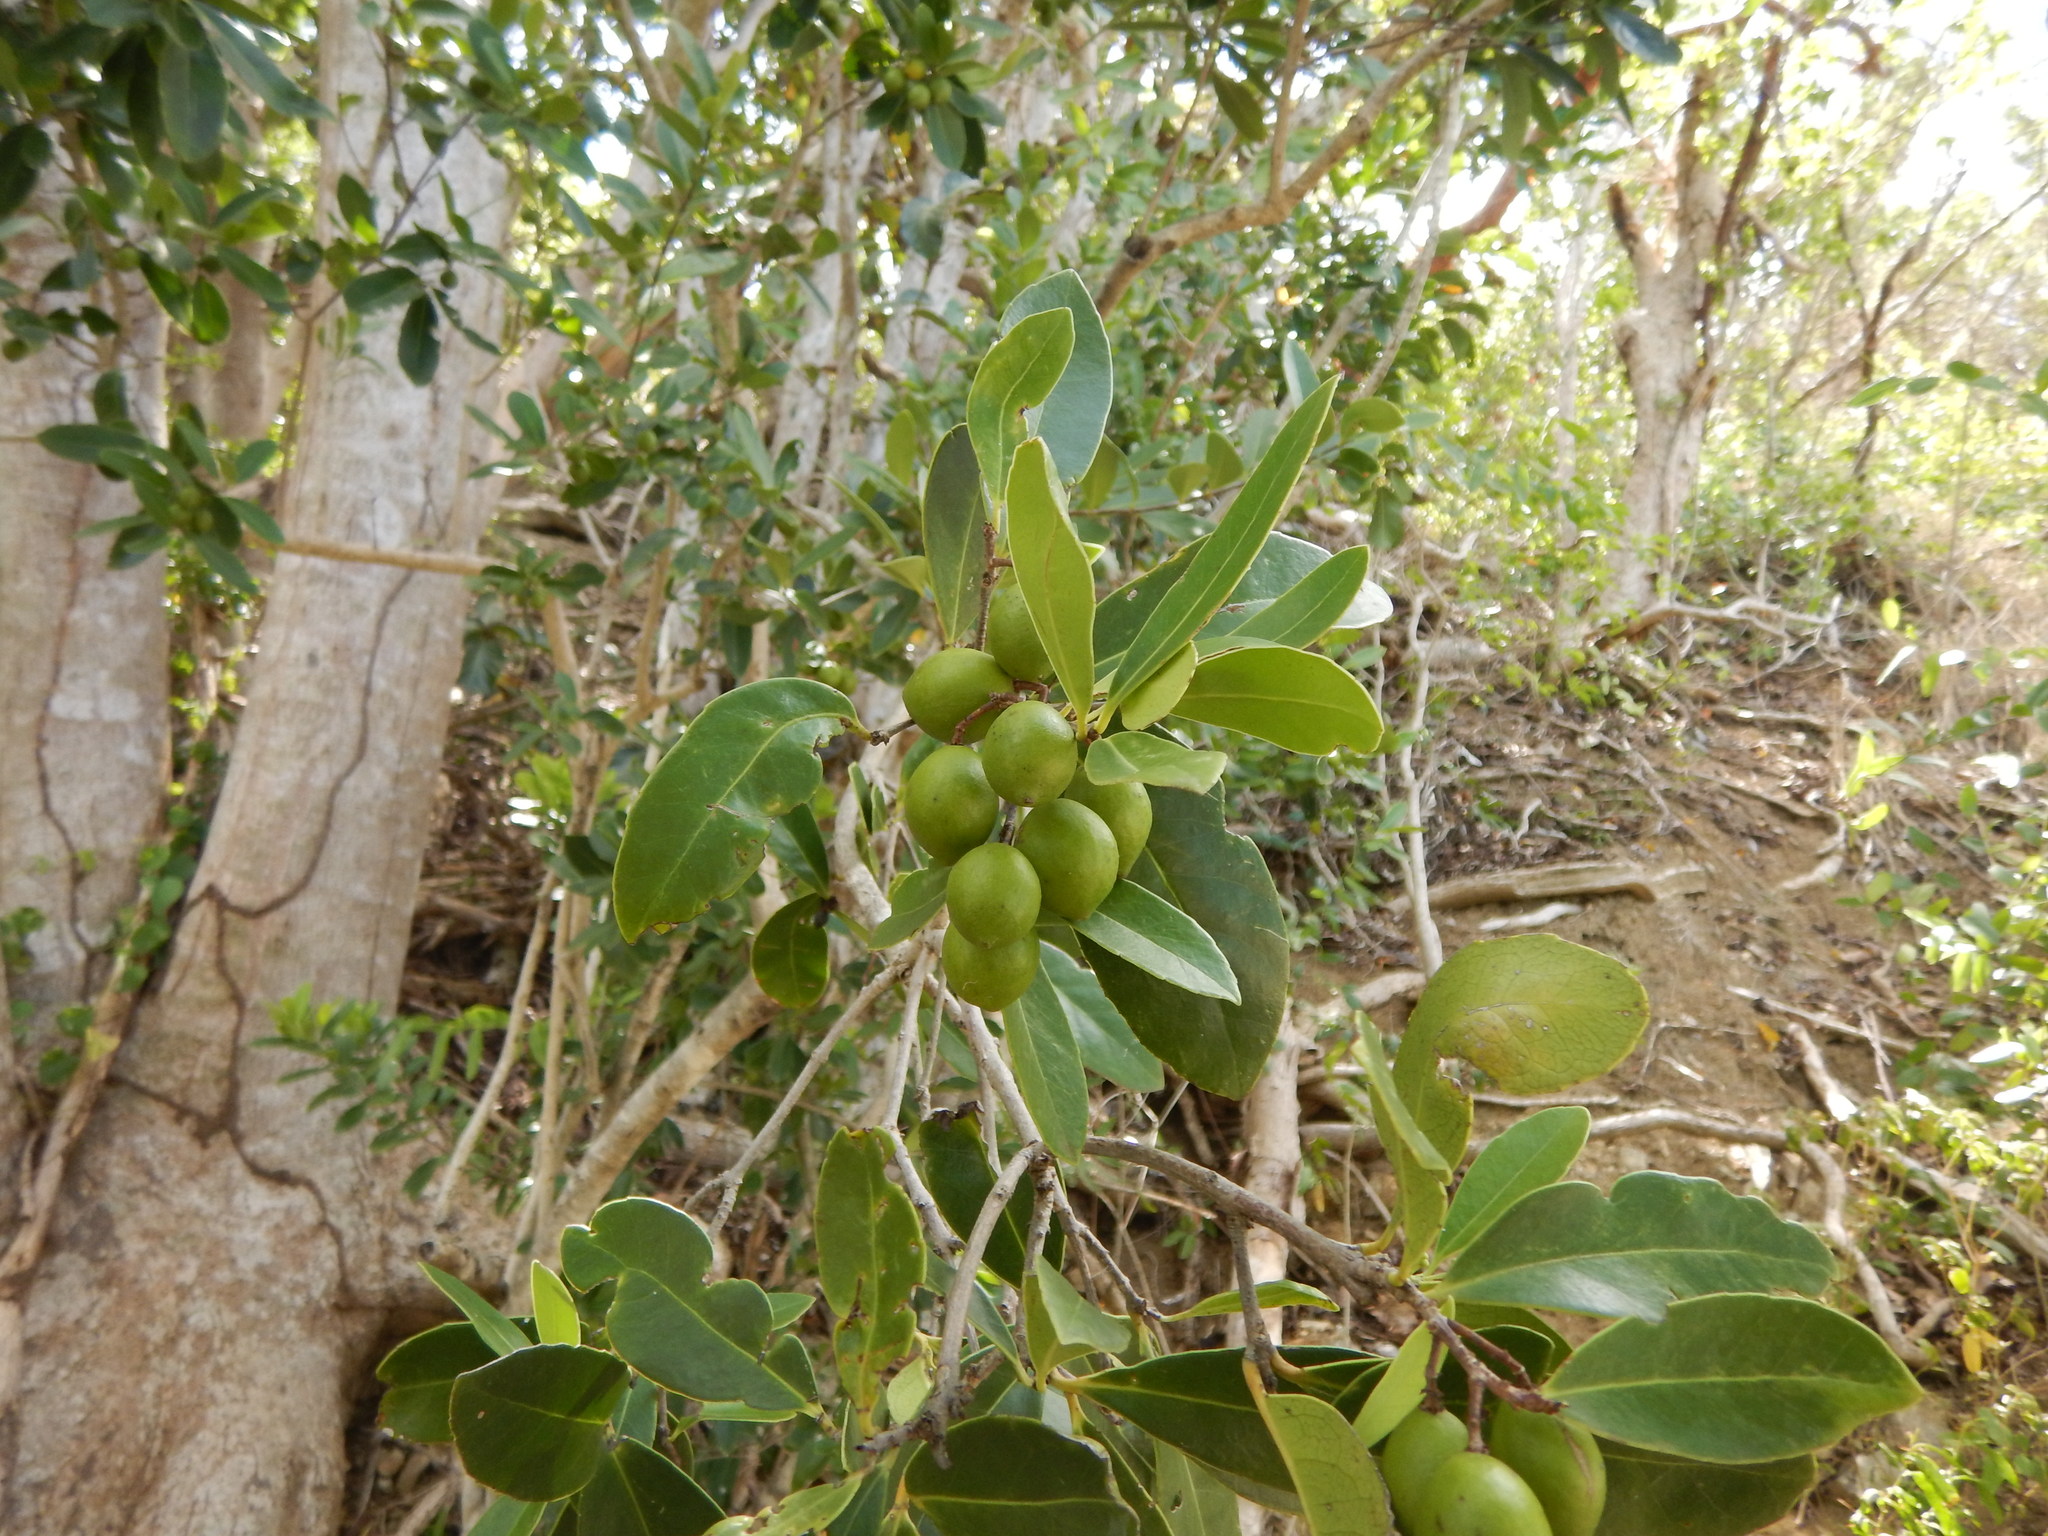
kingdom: Plantae
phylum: Tracheophyta
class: Magnoliopsida
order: Celastrales
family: Celastraceae
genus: Elaeodendron
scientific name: Elaeodendron xylocarpum
